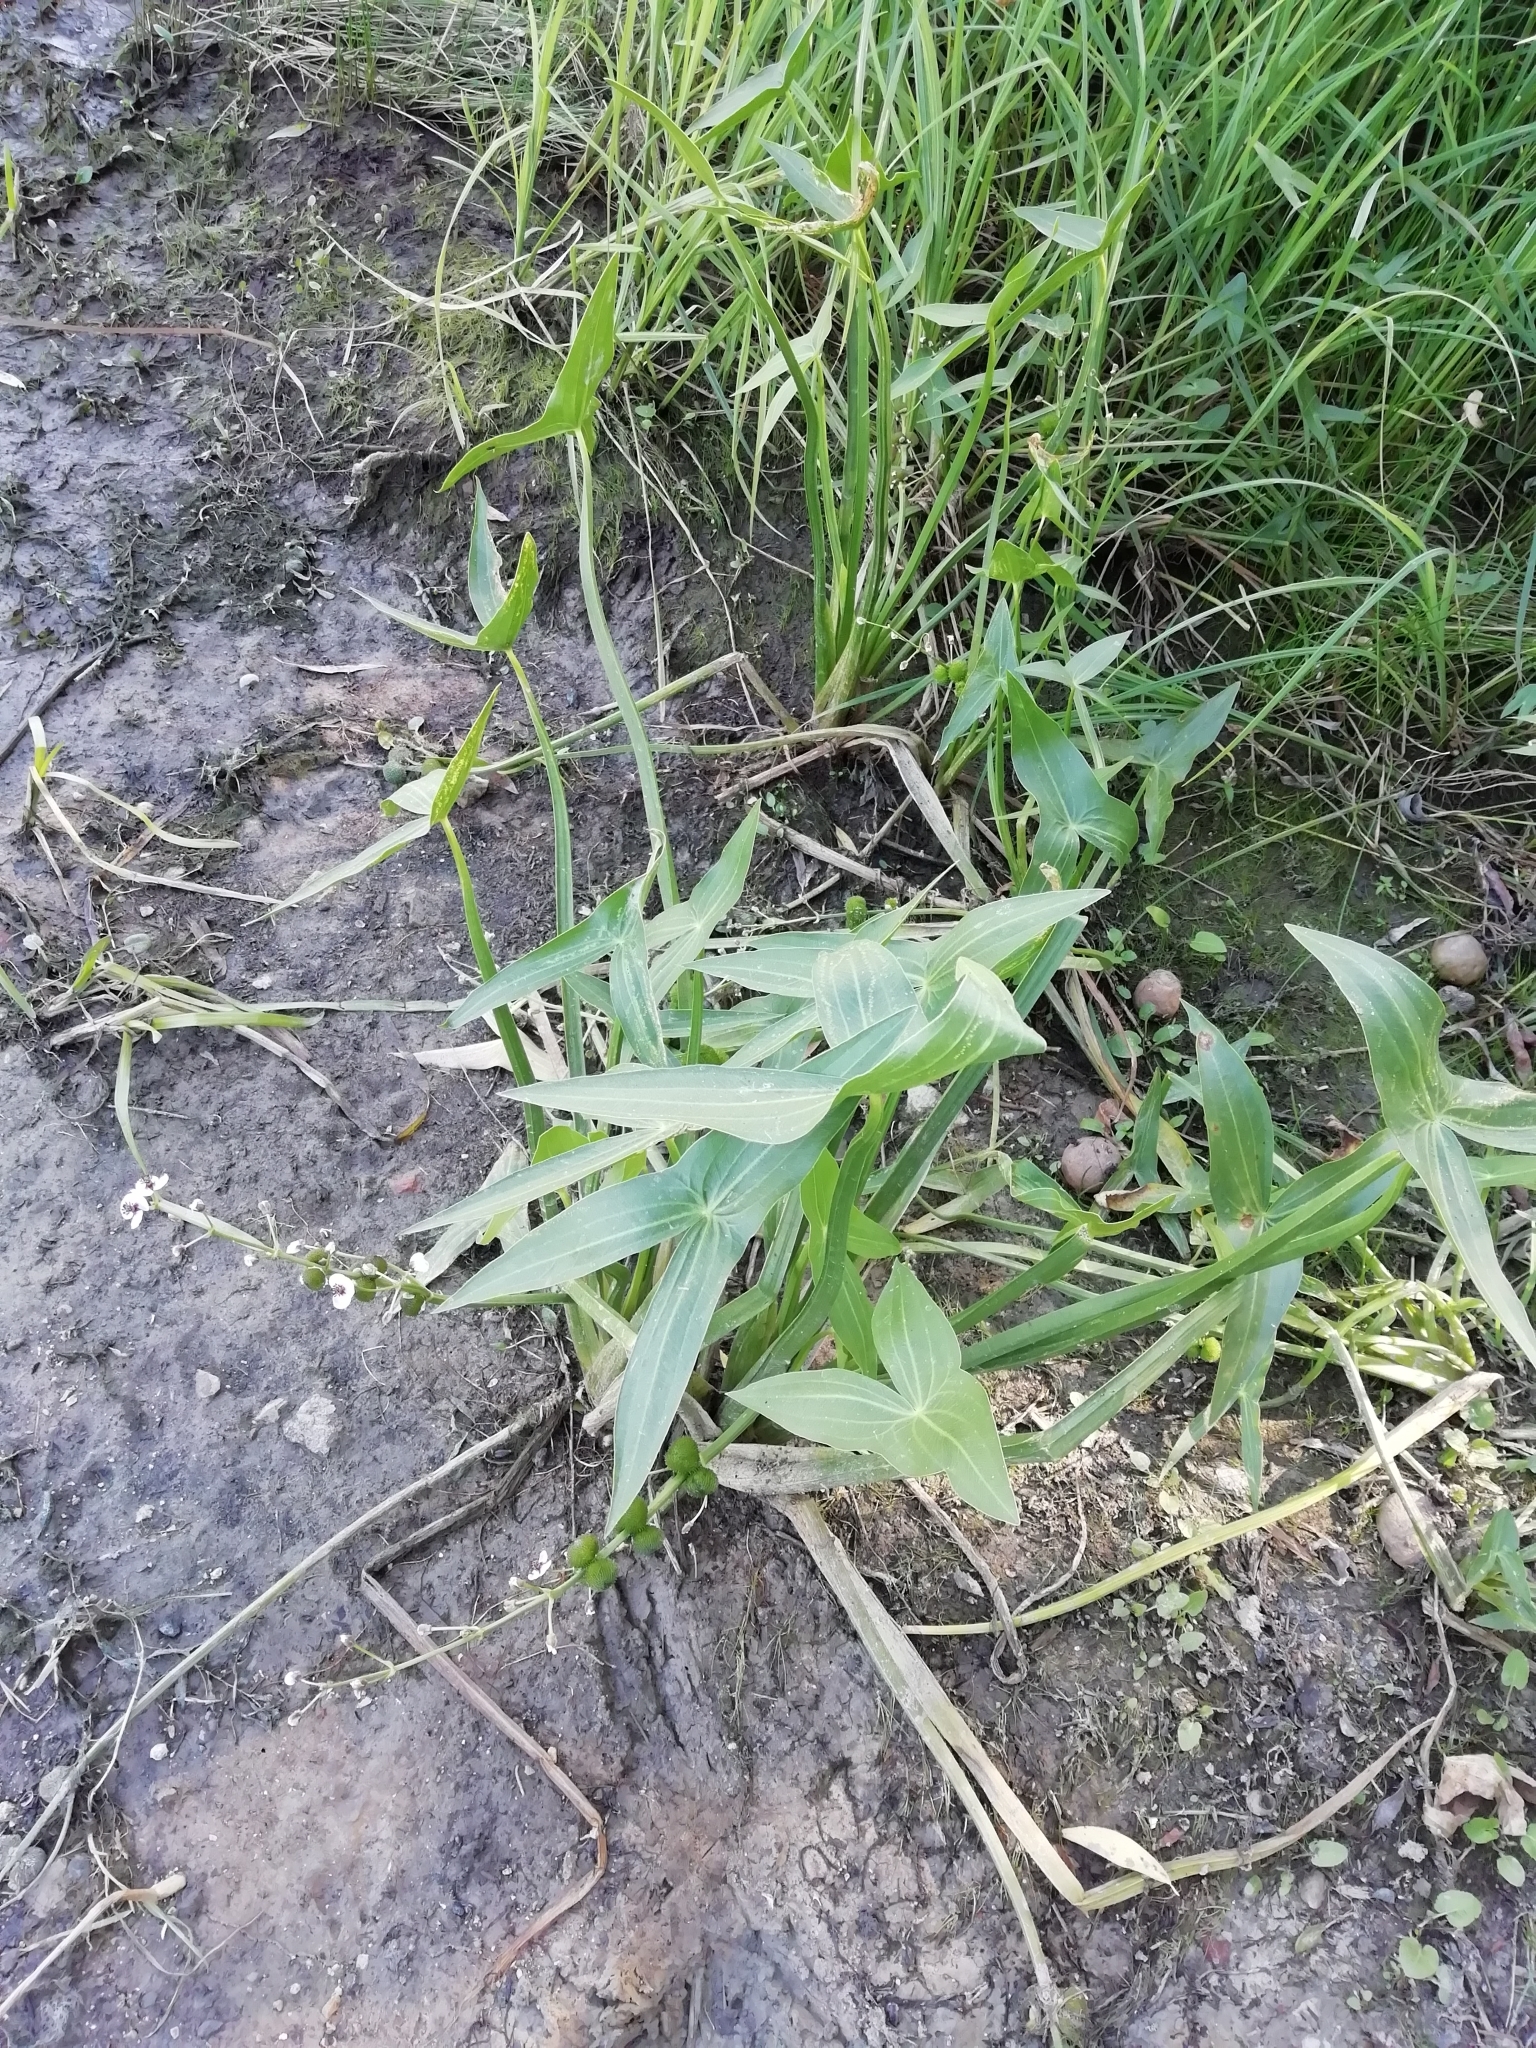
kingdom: Plantae
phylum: Tracheophyta
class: Liliopsida
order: Alismatales
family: Alismataceae
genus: Sagittaria
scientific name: Sagittaria sagittifolia
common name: Arrowhead
